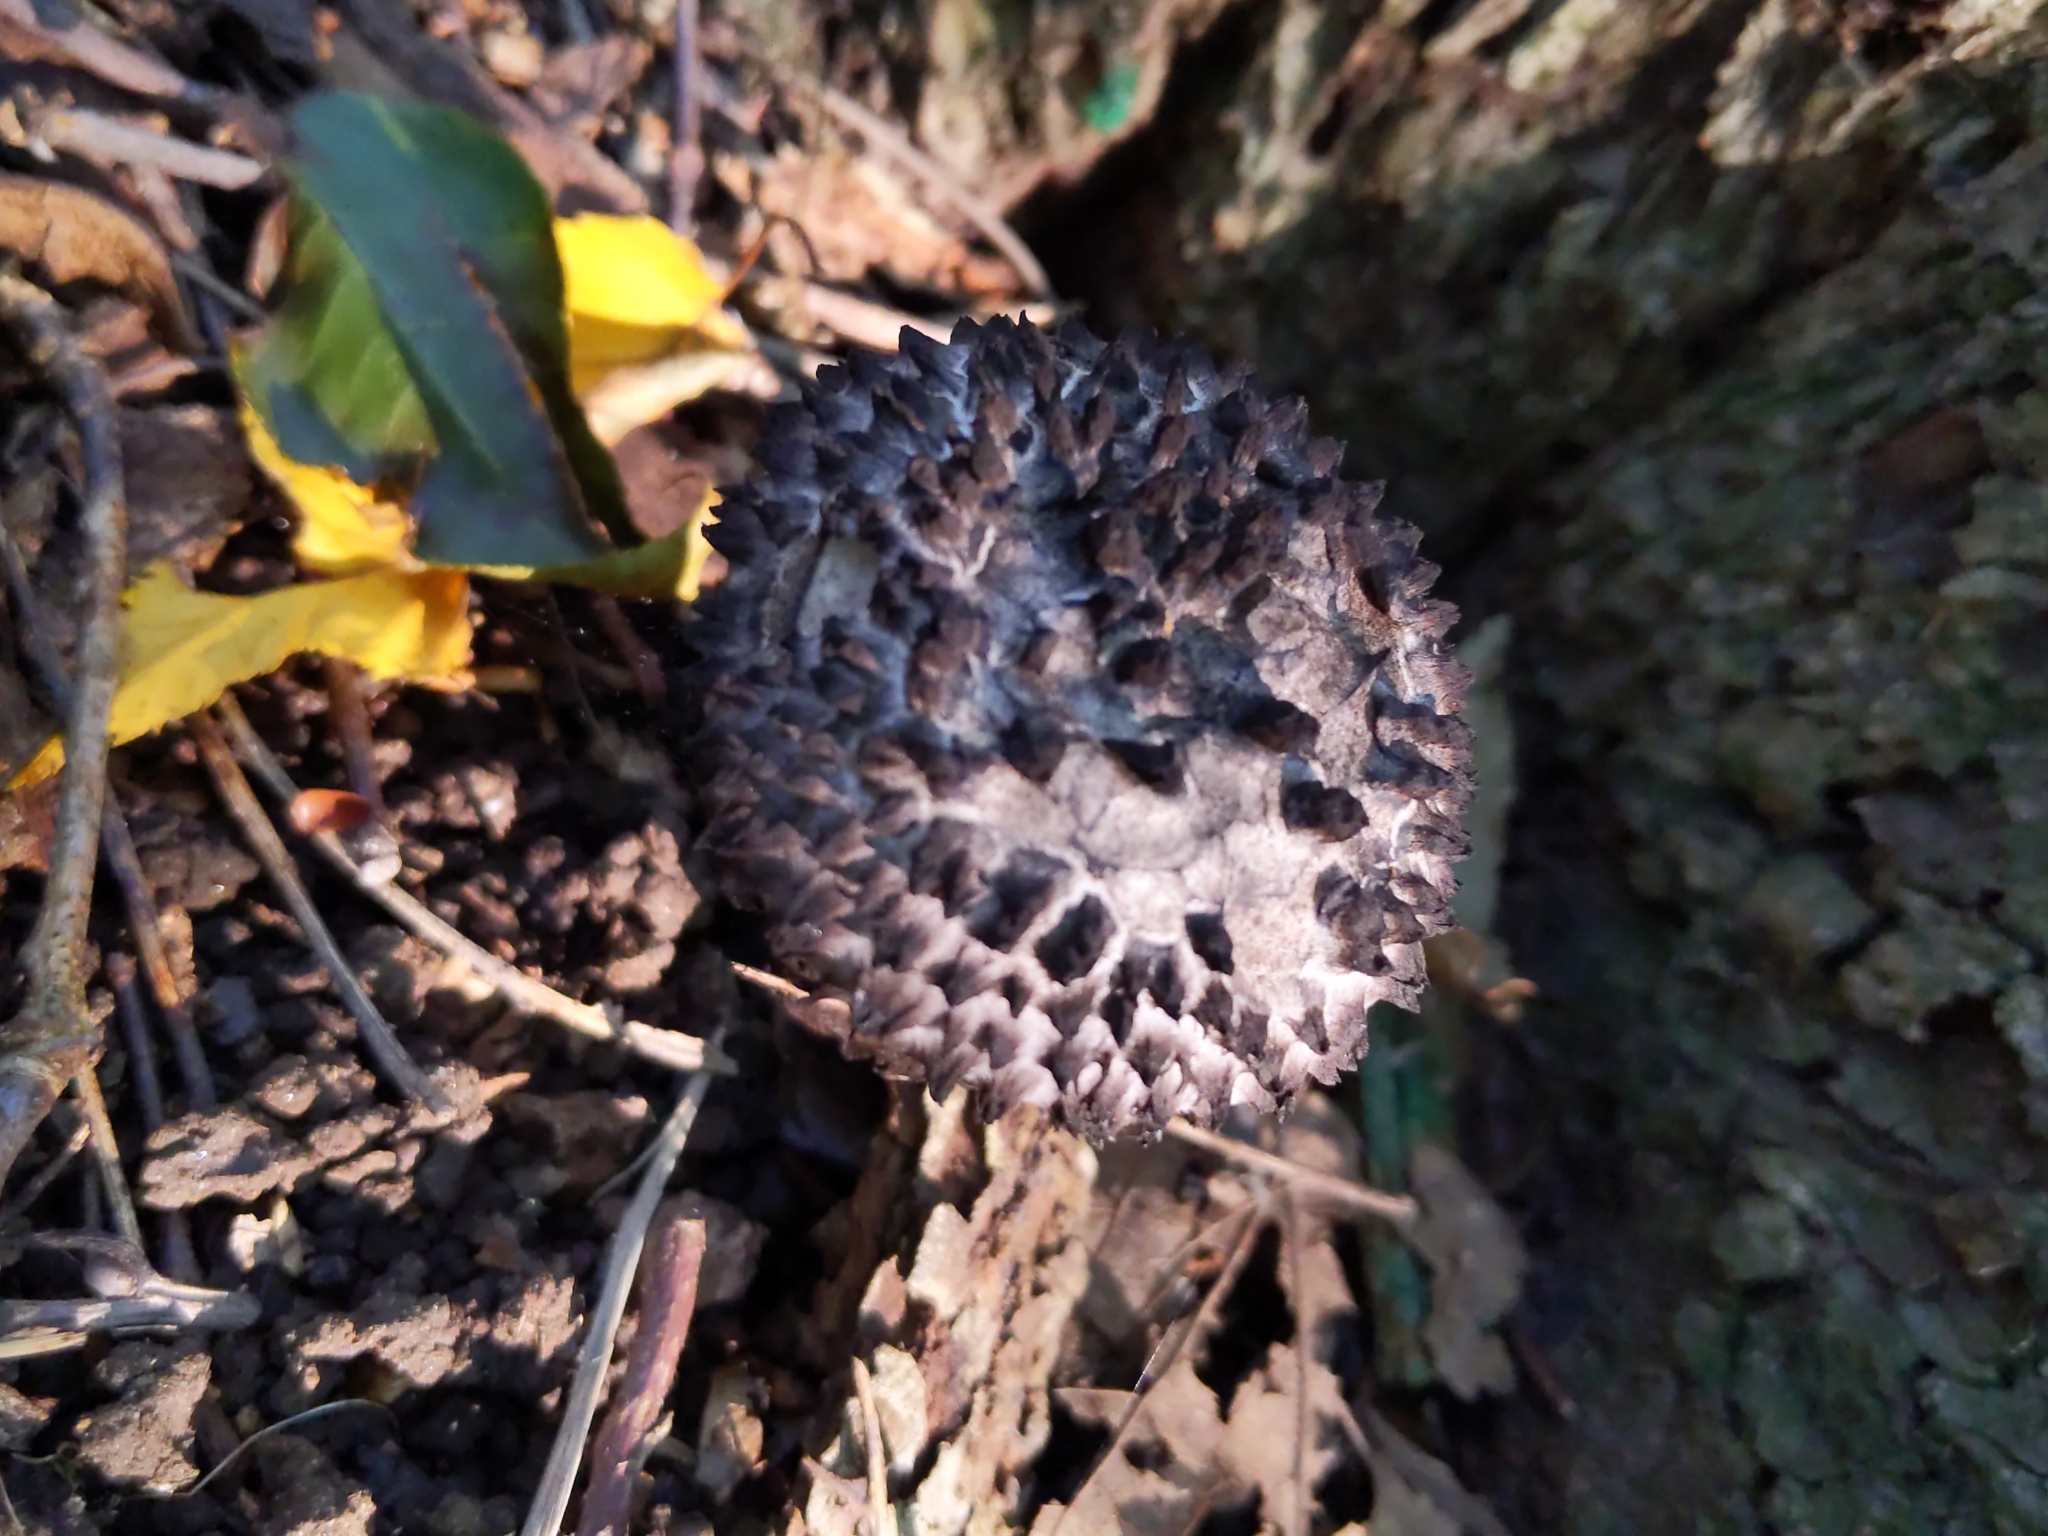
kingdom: Fungi
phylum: Basidiomycota
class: Agaricomycetes
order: Boletales
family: Boletaceae
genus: Strobilomyces
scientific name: Strobilomyces strobilaceus
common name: Old man of the woods
